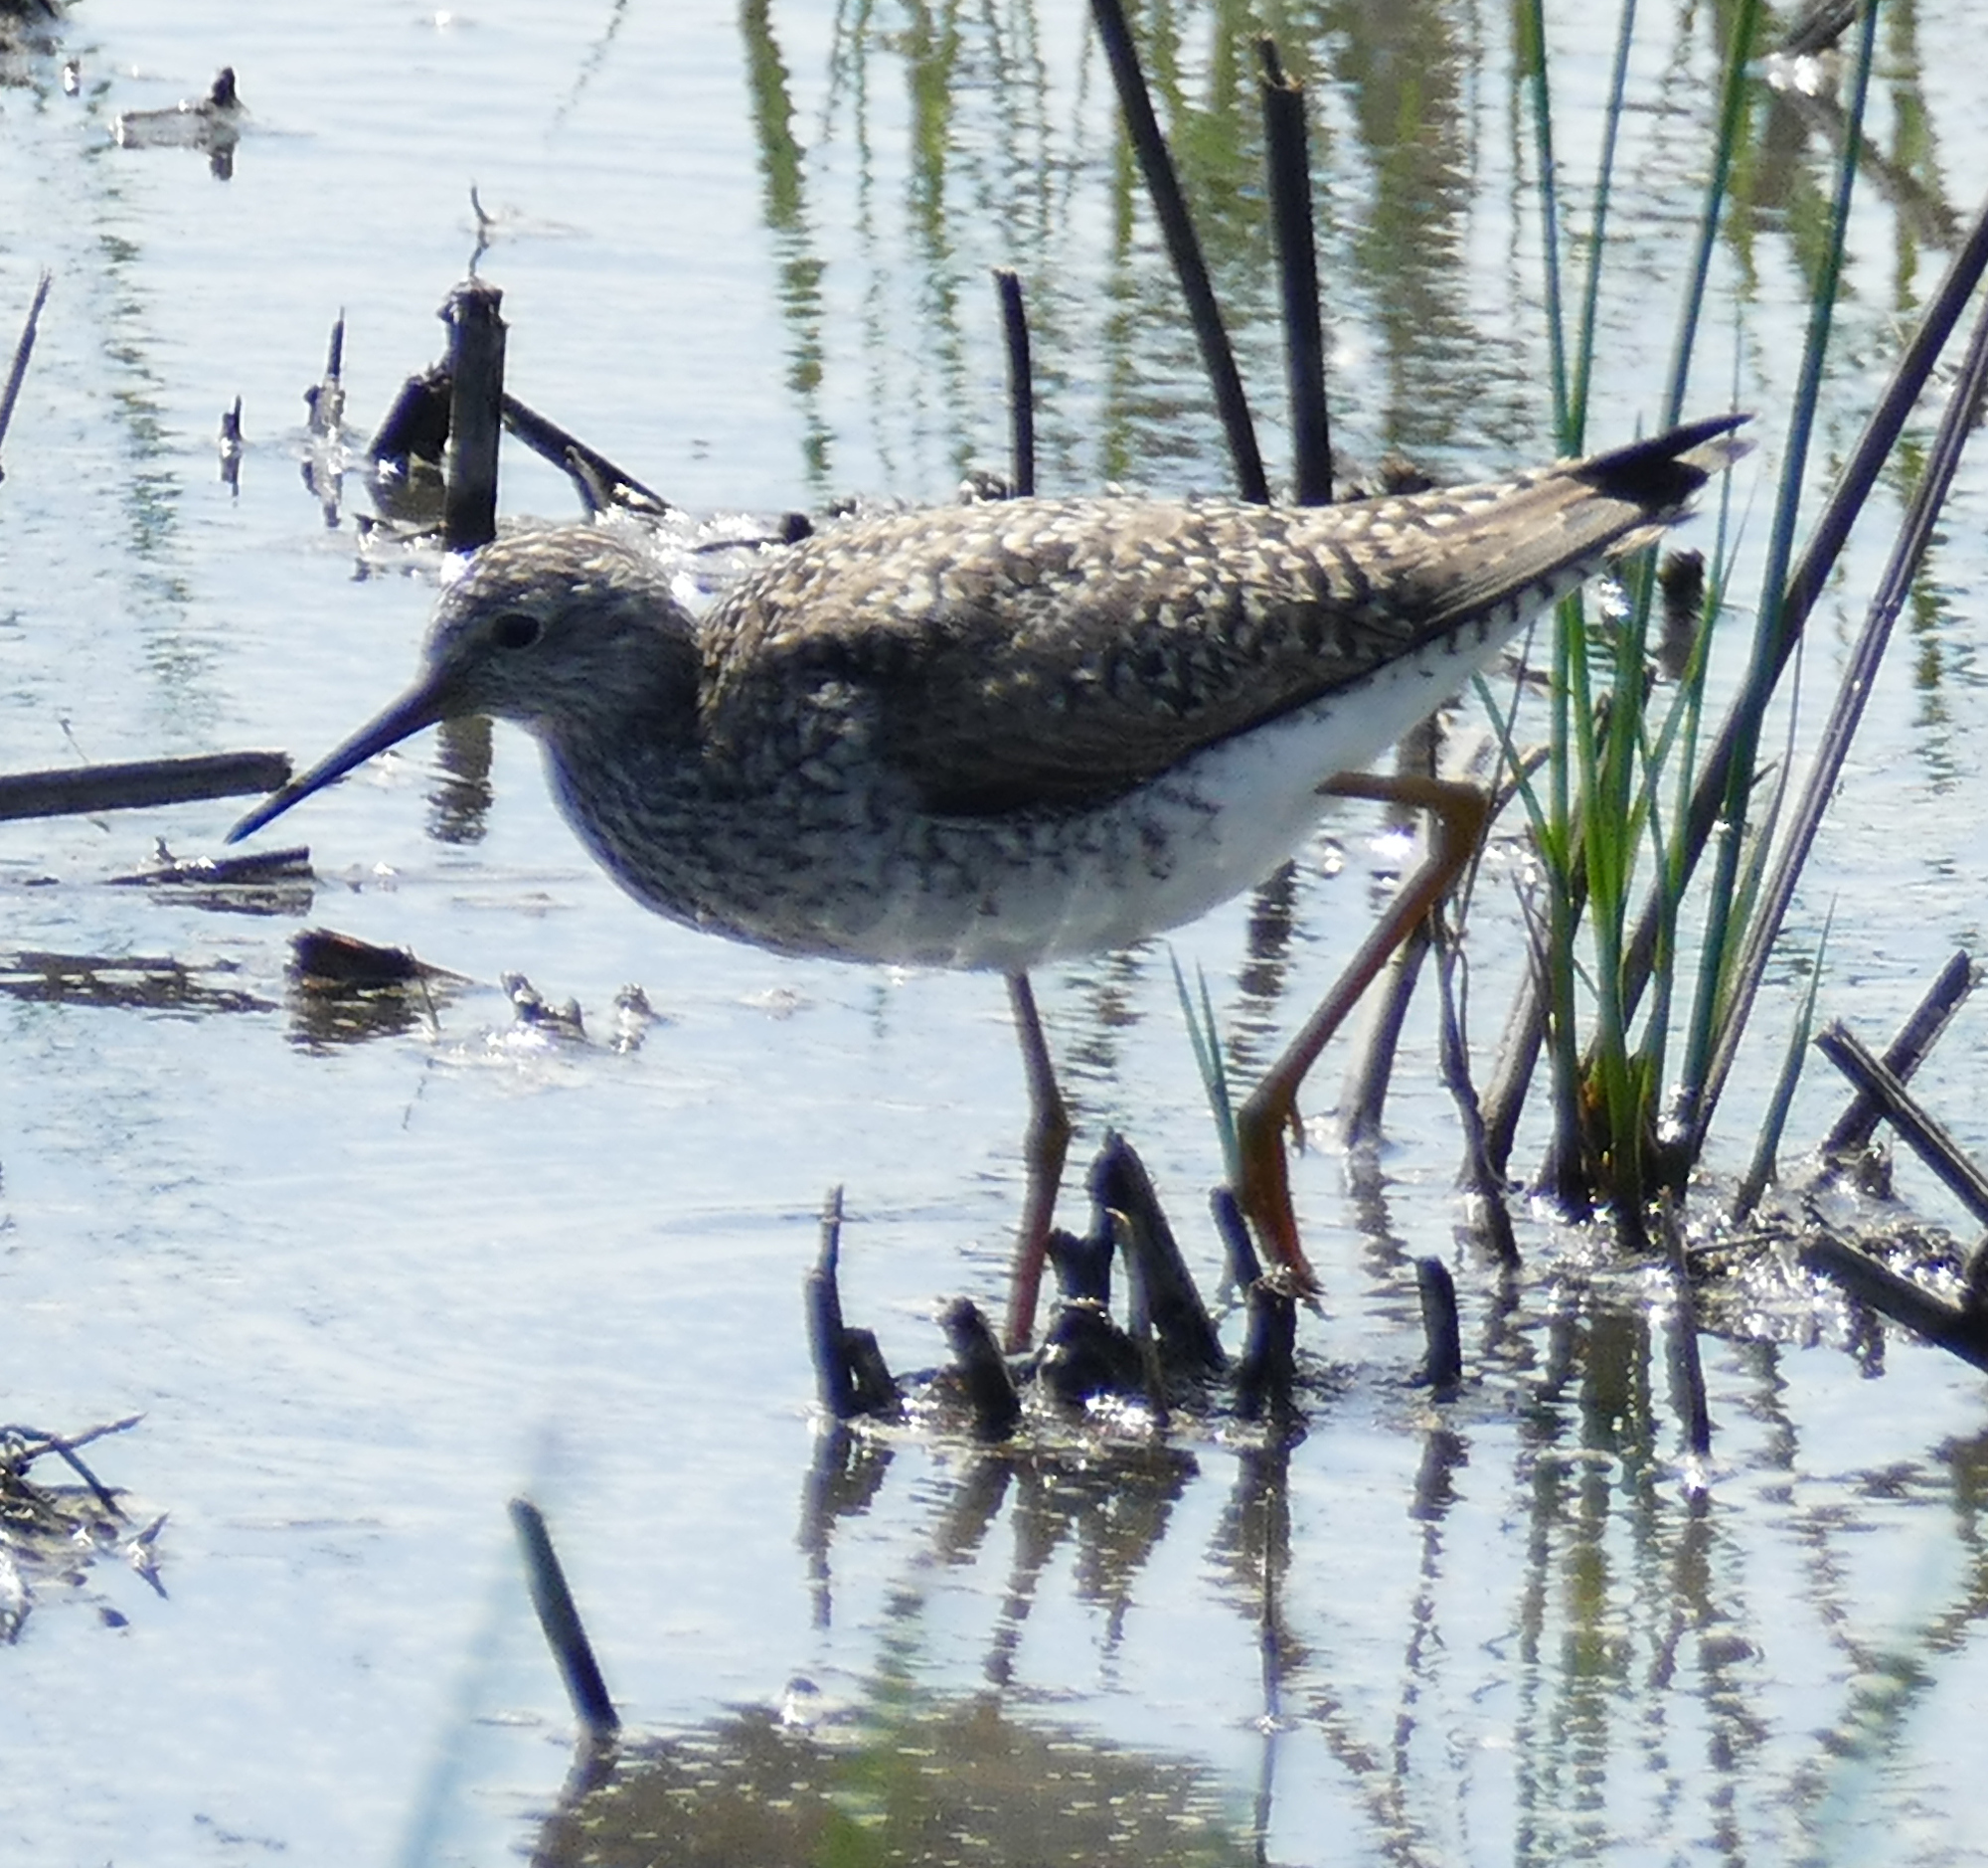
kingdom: Animalia
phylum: Chordata
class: Aves
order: Charadriiformes
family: Scolopacidae
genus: Tringa
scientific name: Tringa flavipes
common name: Lesser yellowlegs
